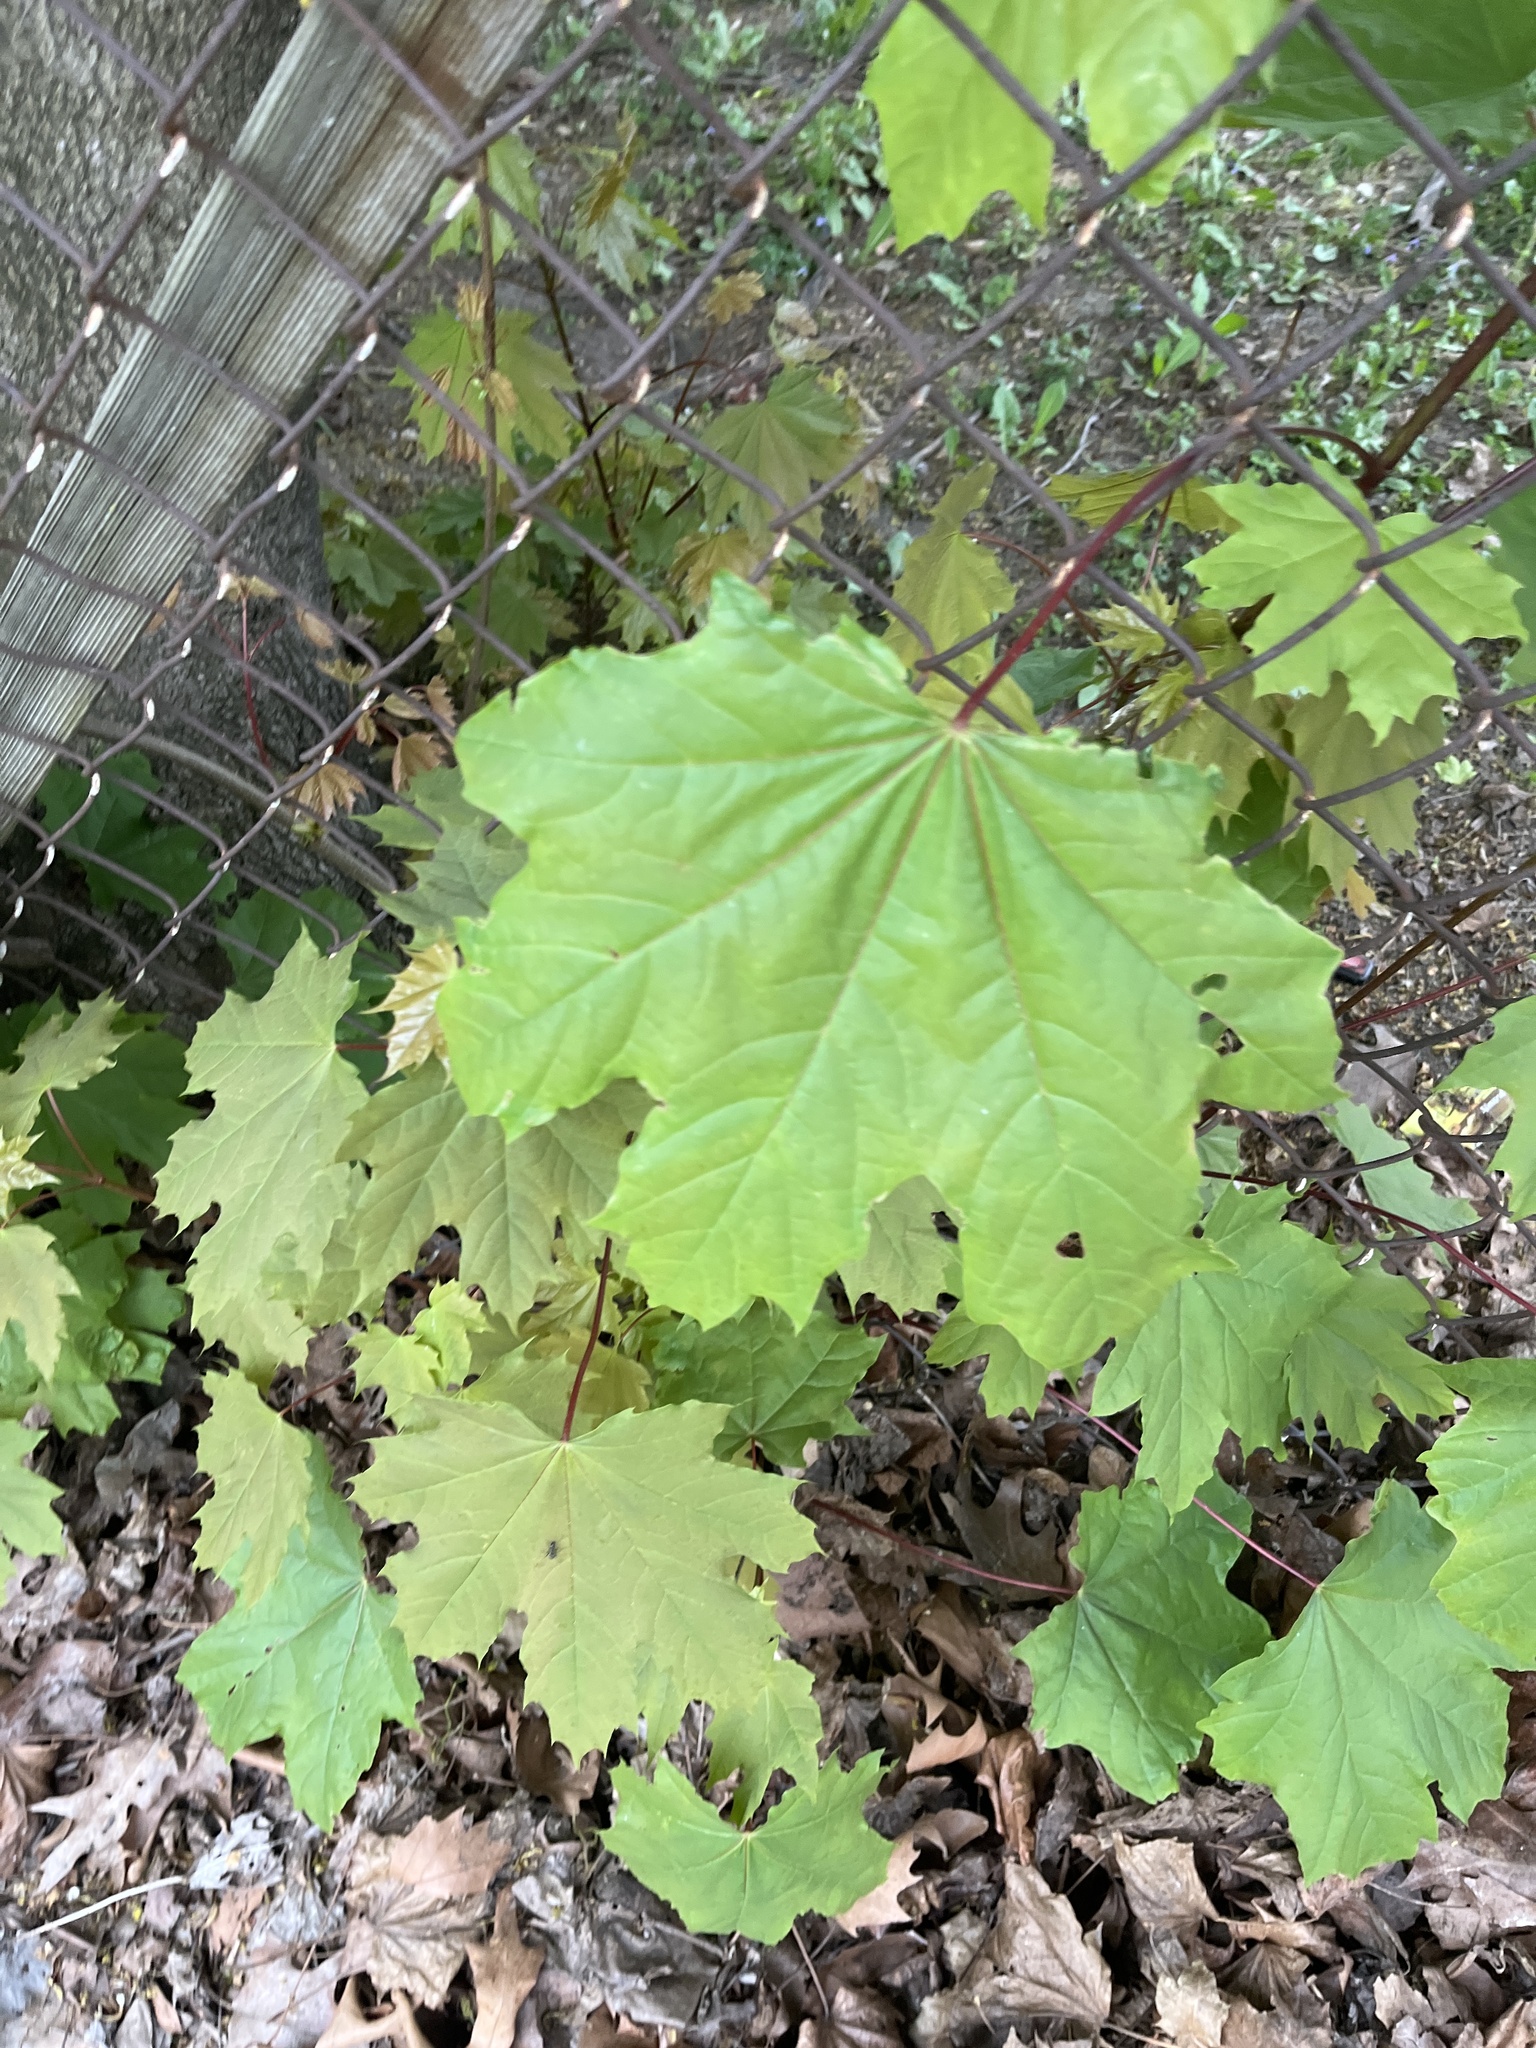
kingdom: Plantae
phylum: Tracheophyta
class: Magnoliopsida
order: Sapindales
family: Sapindaceae
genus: Acer
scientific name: Acer platanoides
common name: Norway maple
